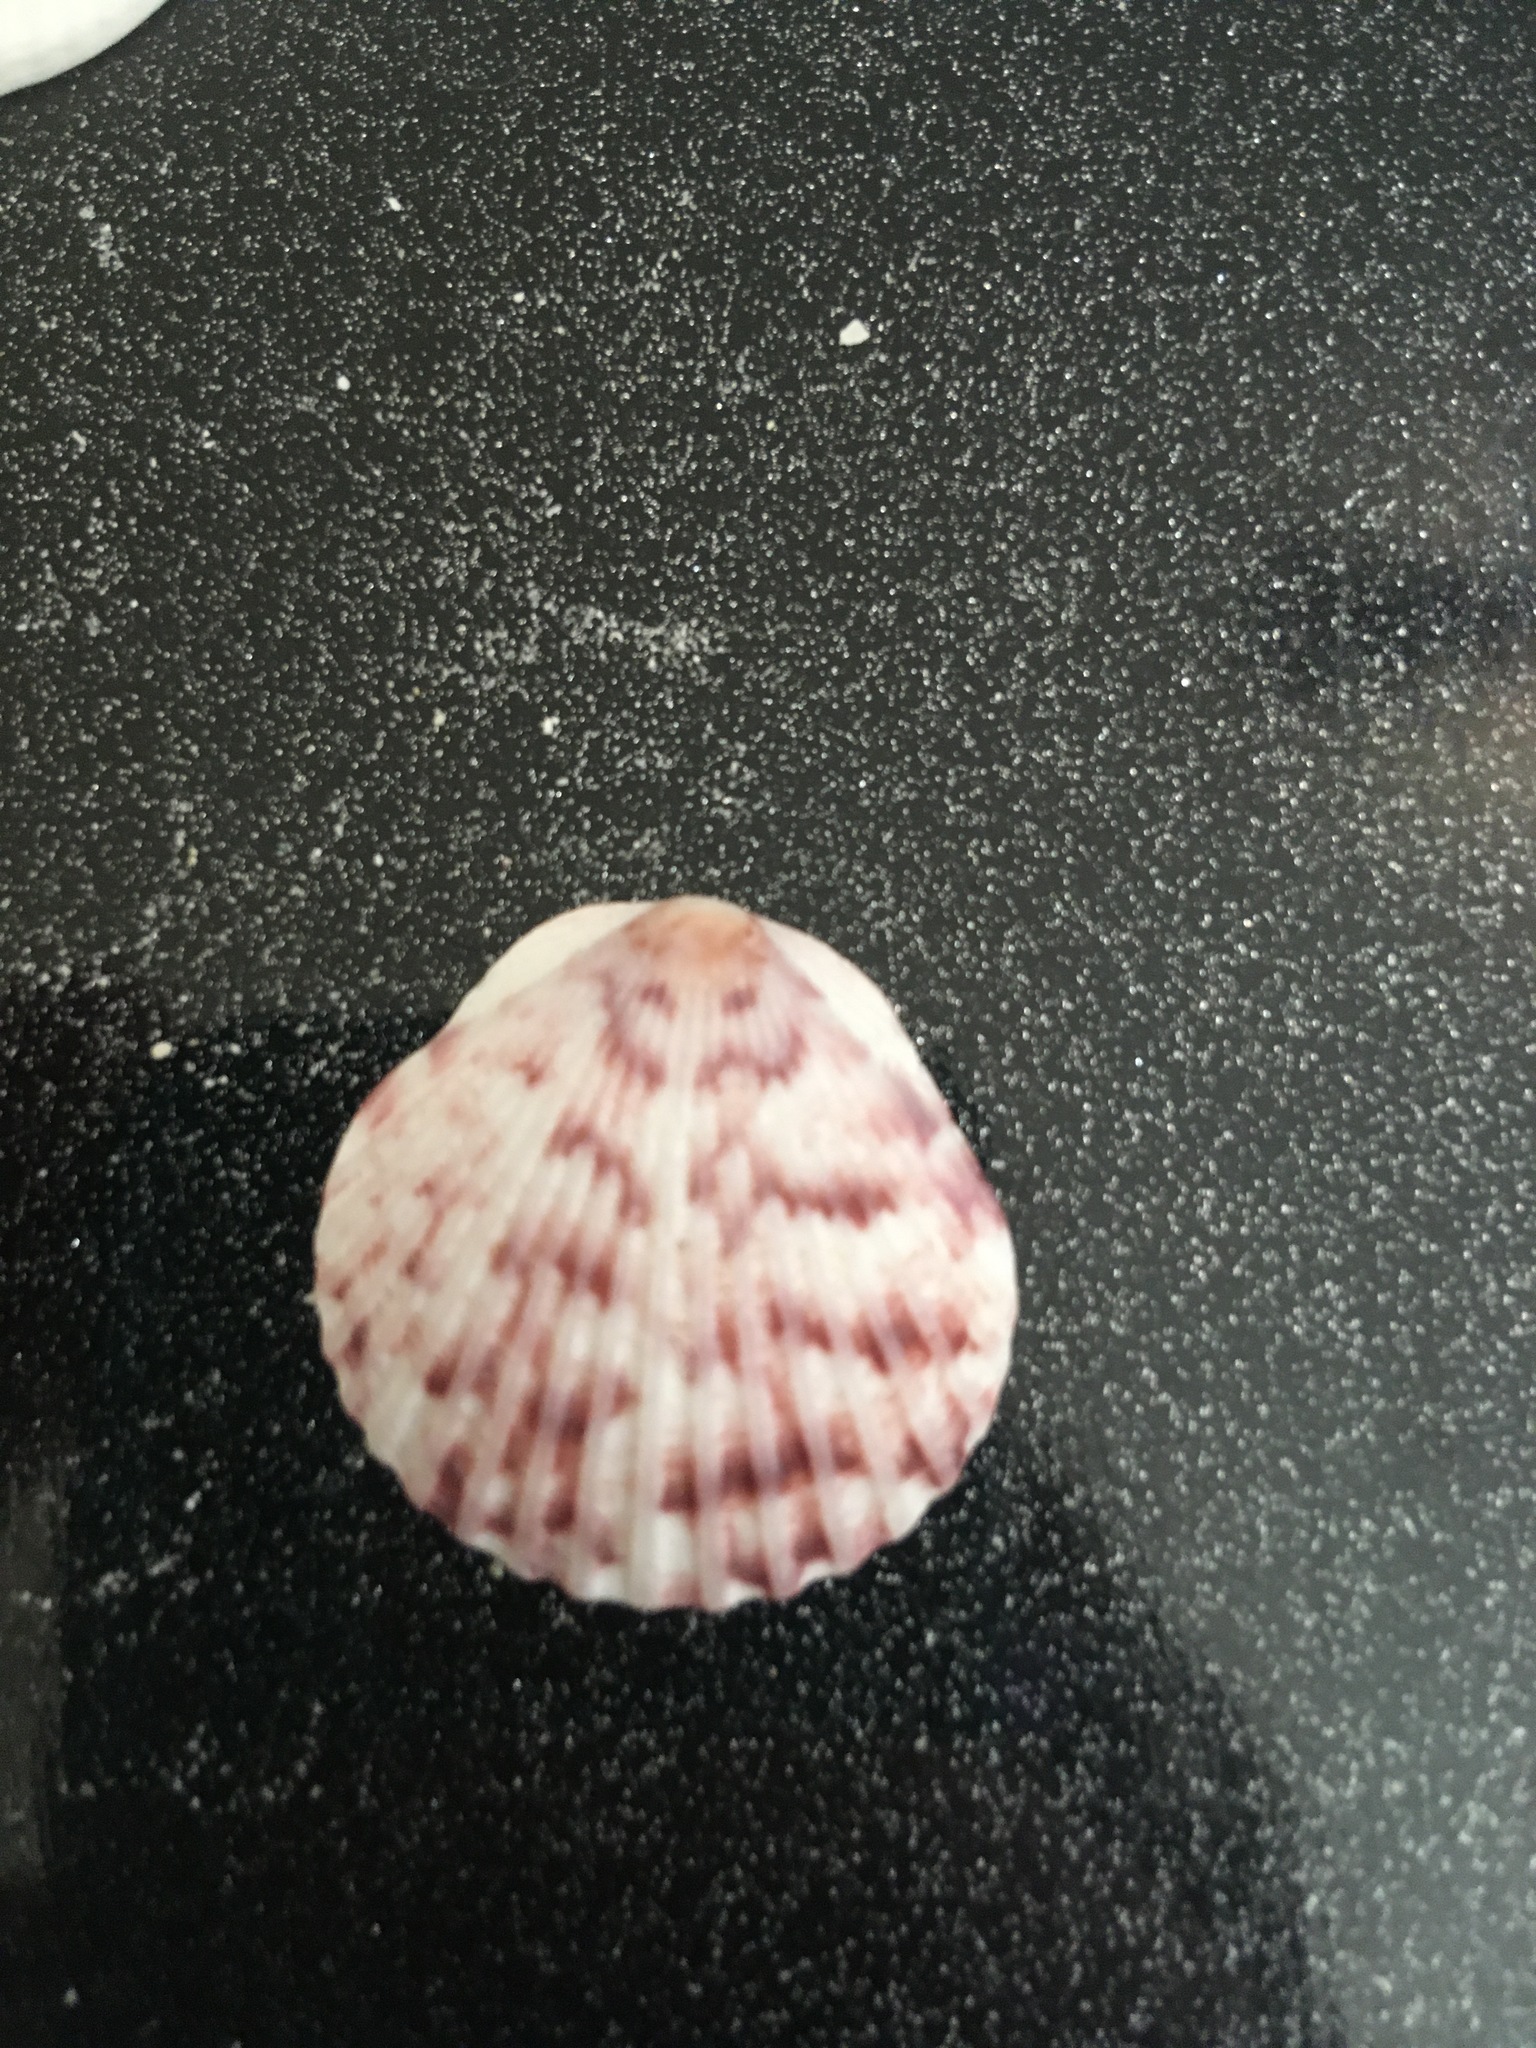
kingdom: Animalia
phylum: Mollusca
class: Bivalvia
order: Pectinida
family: Pectinidae
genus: Argopecten
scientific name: Argopecten gibbus
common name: Atlantic calico scallop
